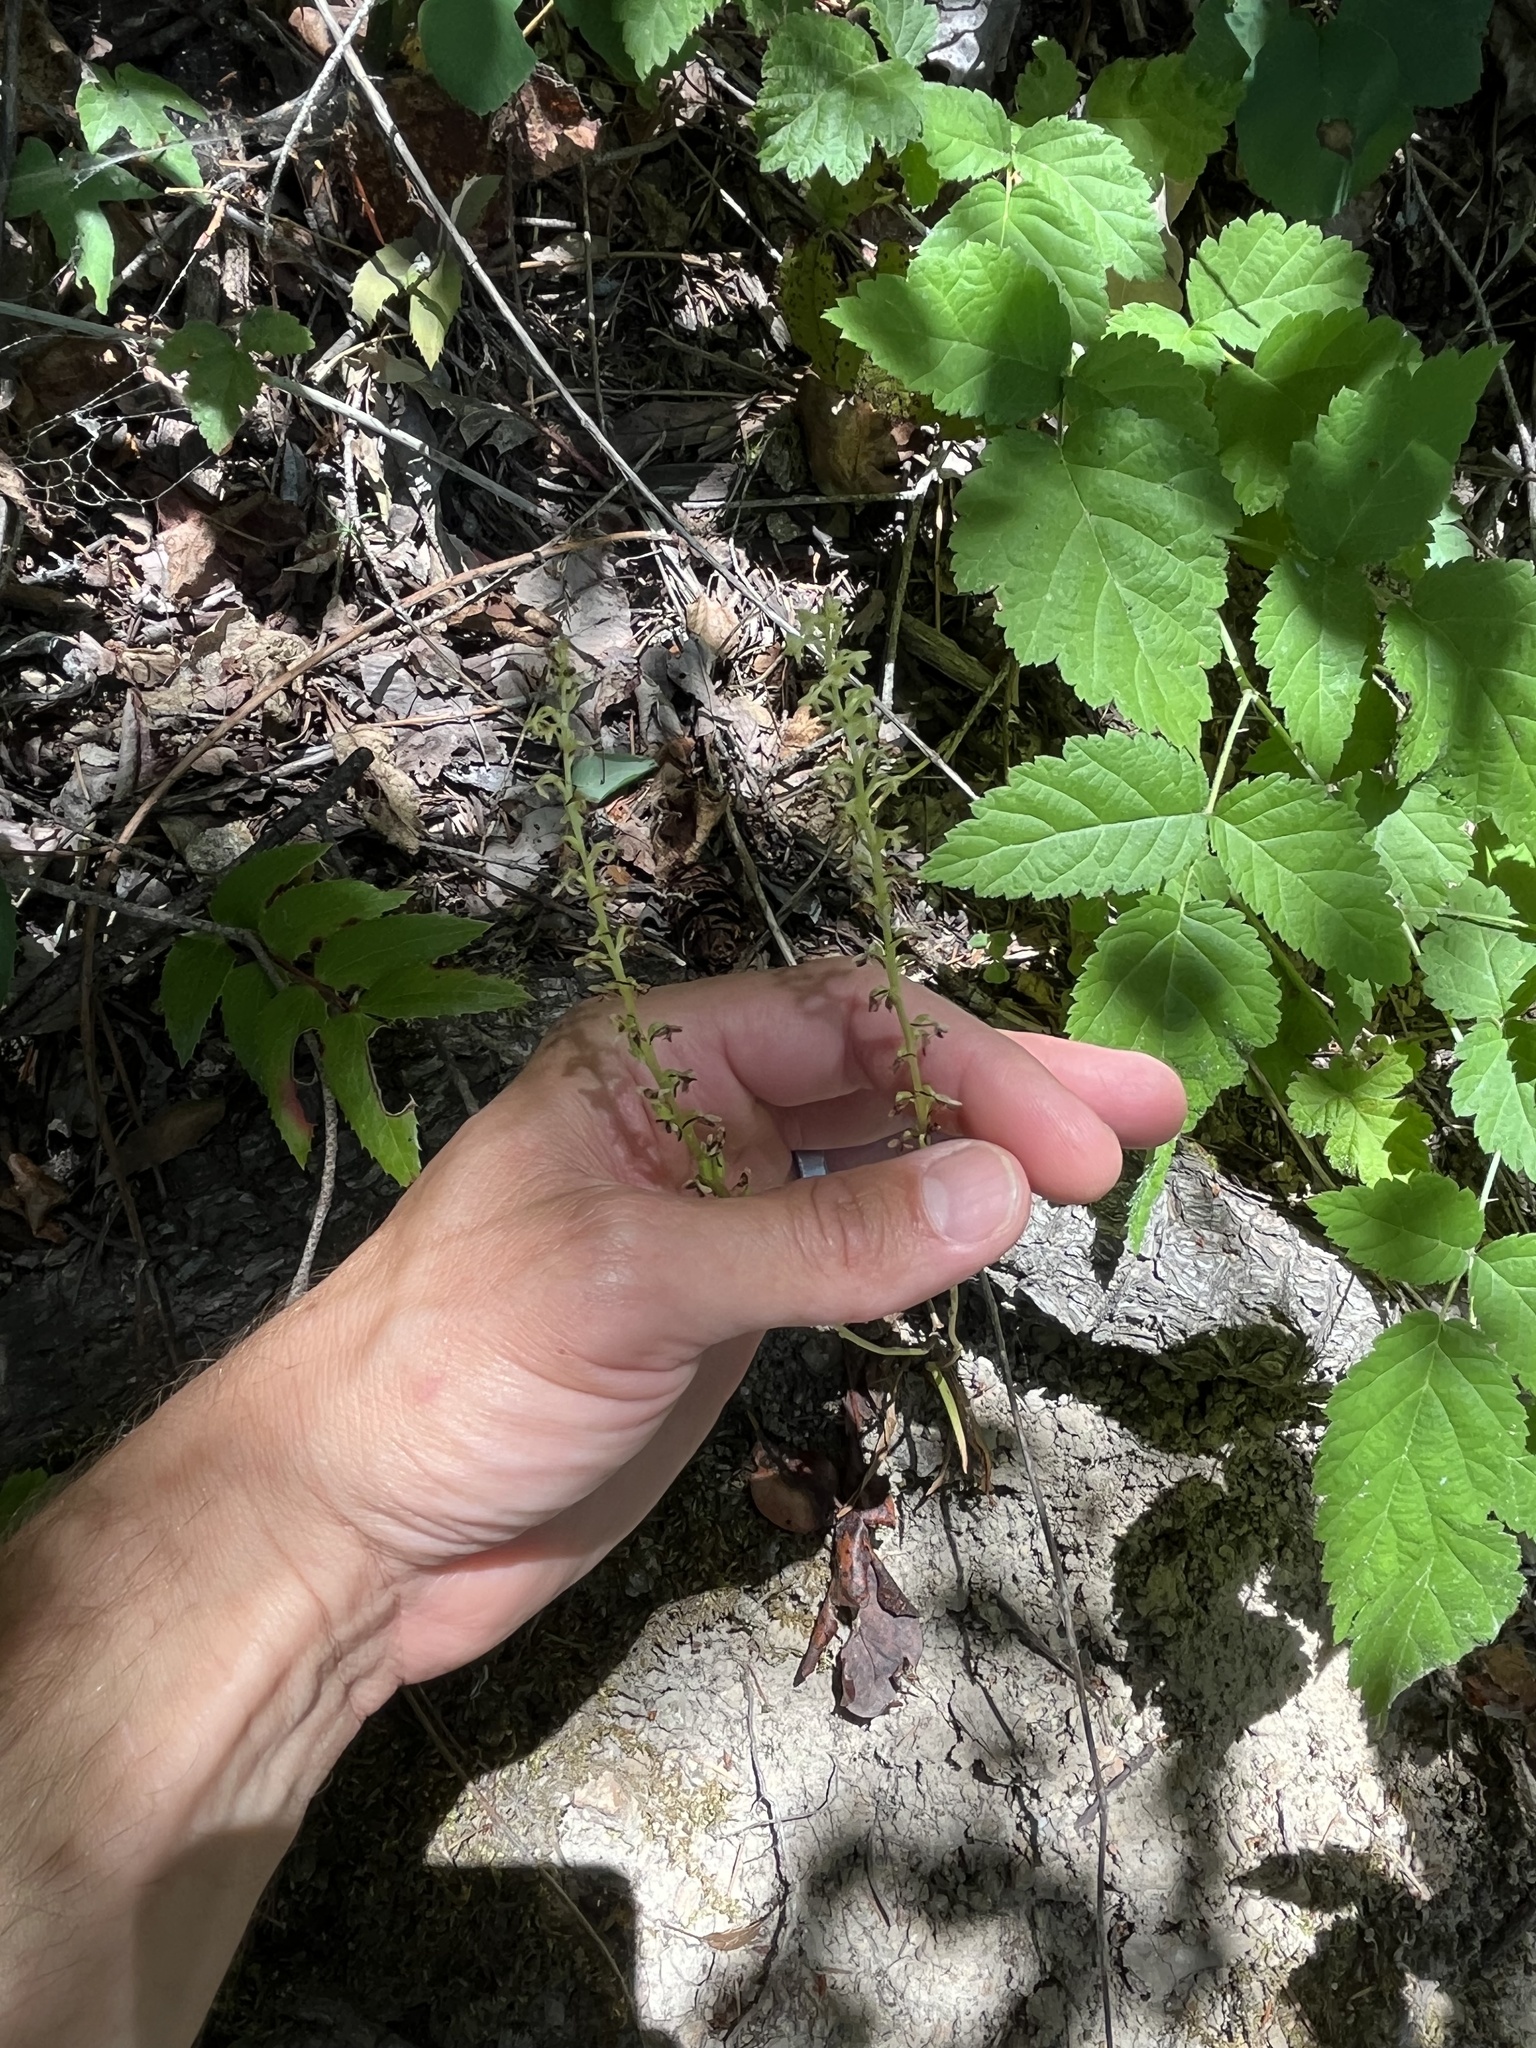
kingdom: Plantae
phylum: Tracheophyta
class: Liliopsida
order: Asparagales
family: Orchidaceae
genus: Platanthera
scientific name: Platanthera unalascensis
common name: Alaska bog orchid
